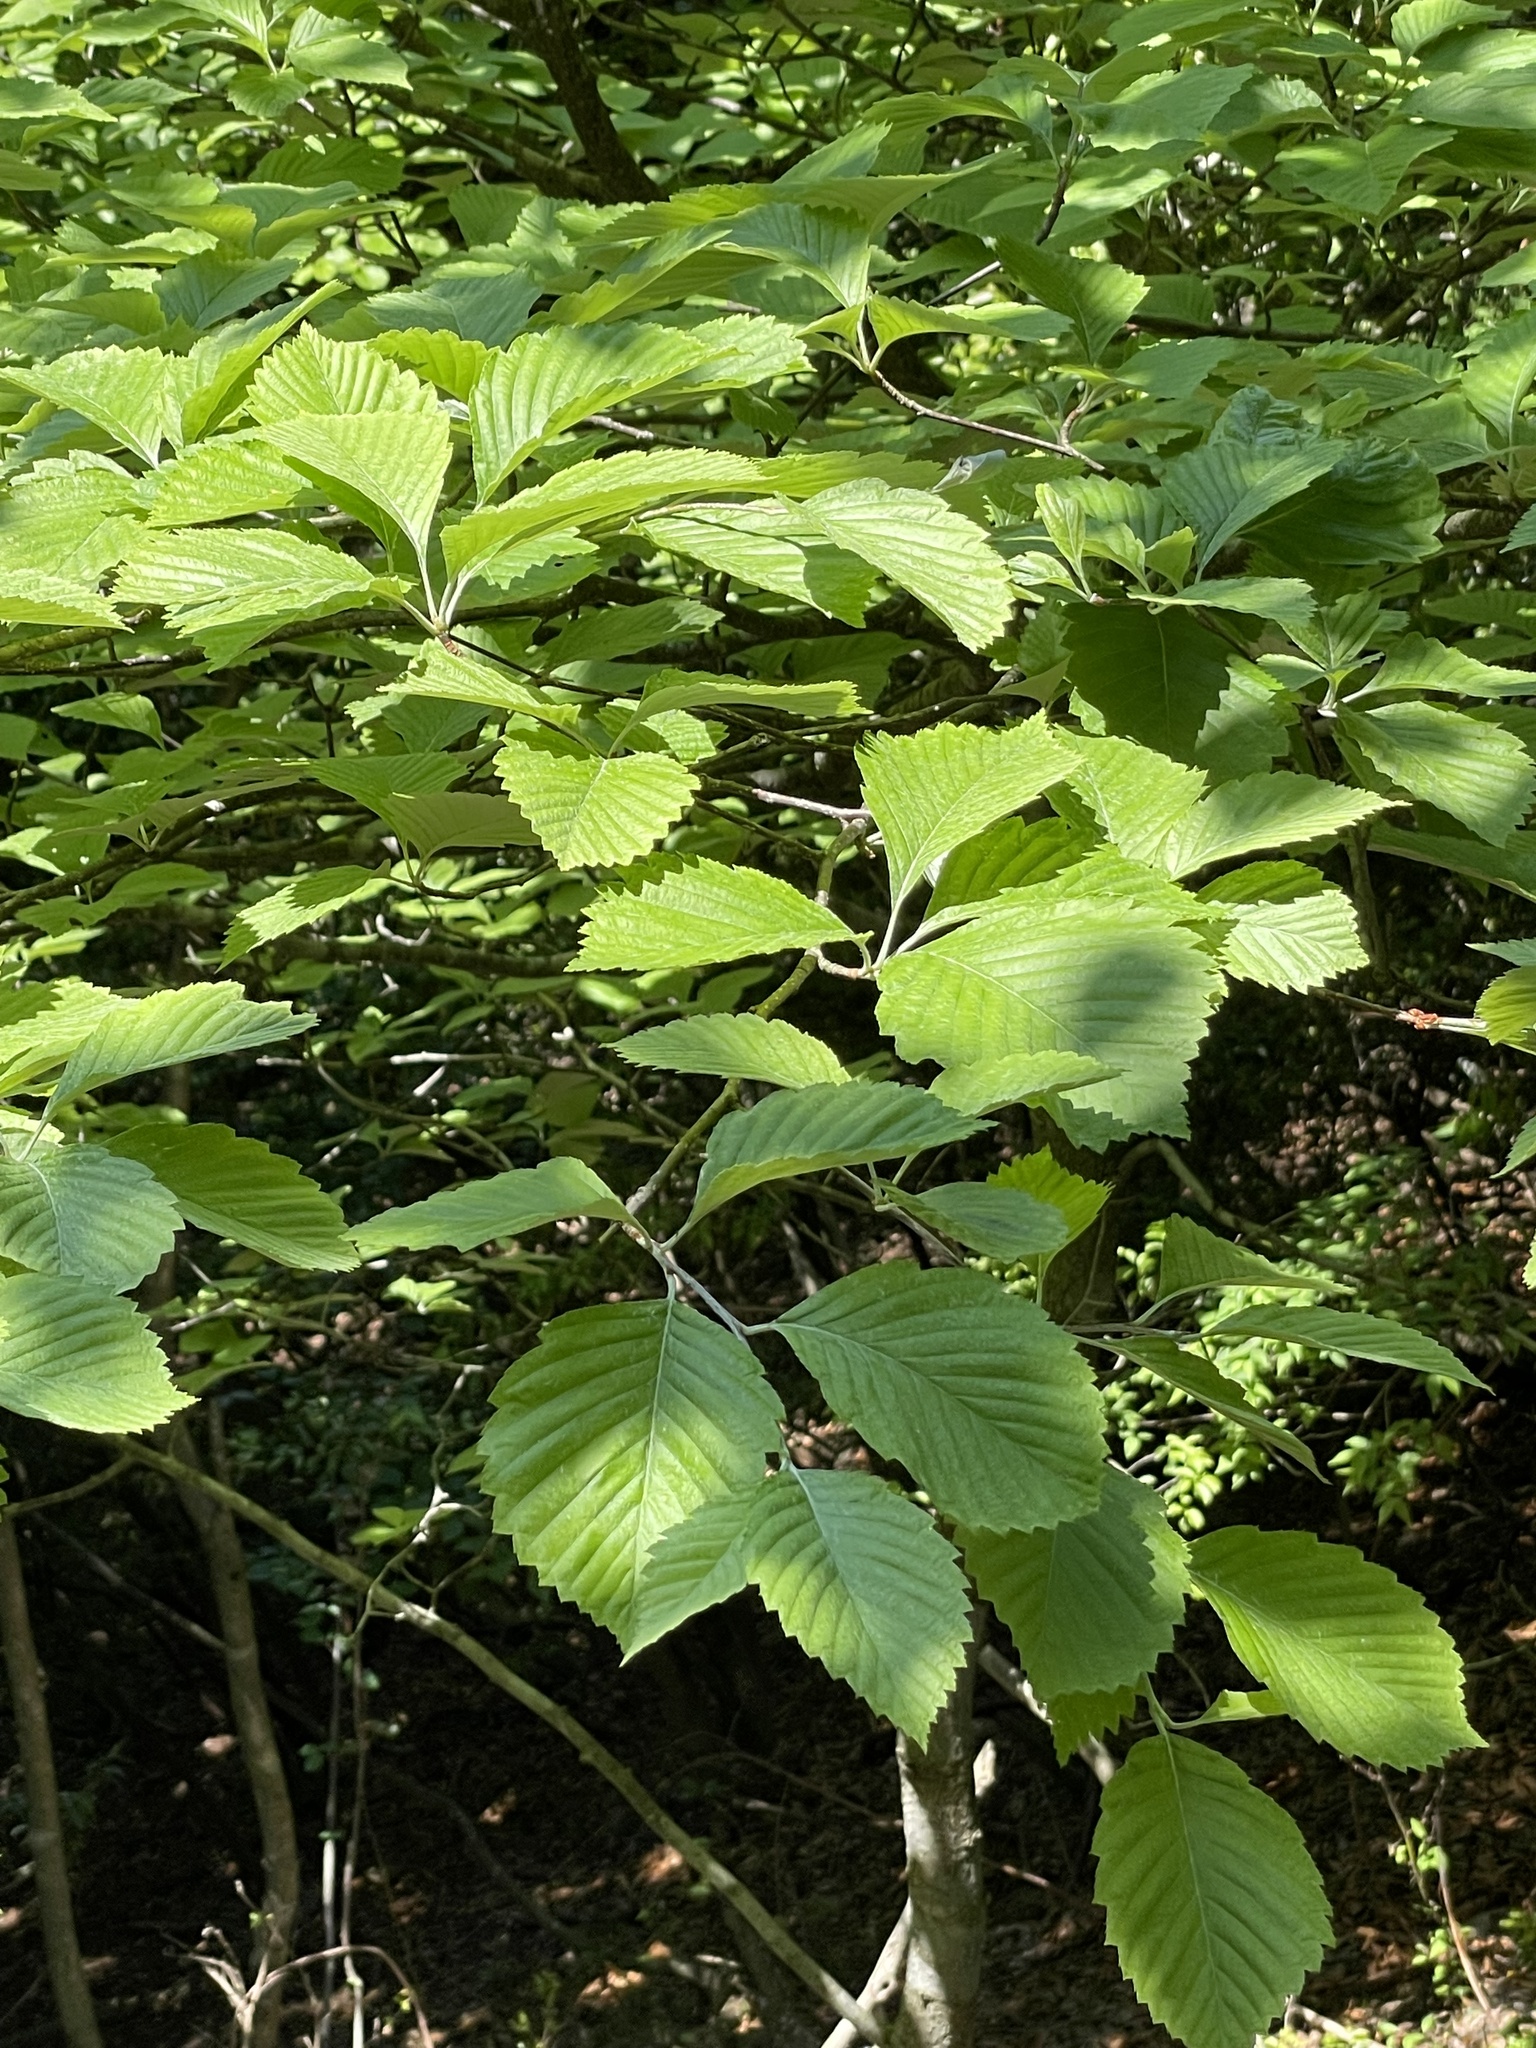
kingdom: Plantae
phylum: Tracheophyta
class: Magnoliopsida
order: Rosales
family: Rosaceae
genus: Sorbus
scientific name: Sorbus japonica
